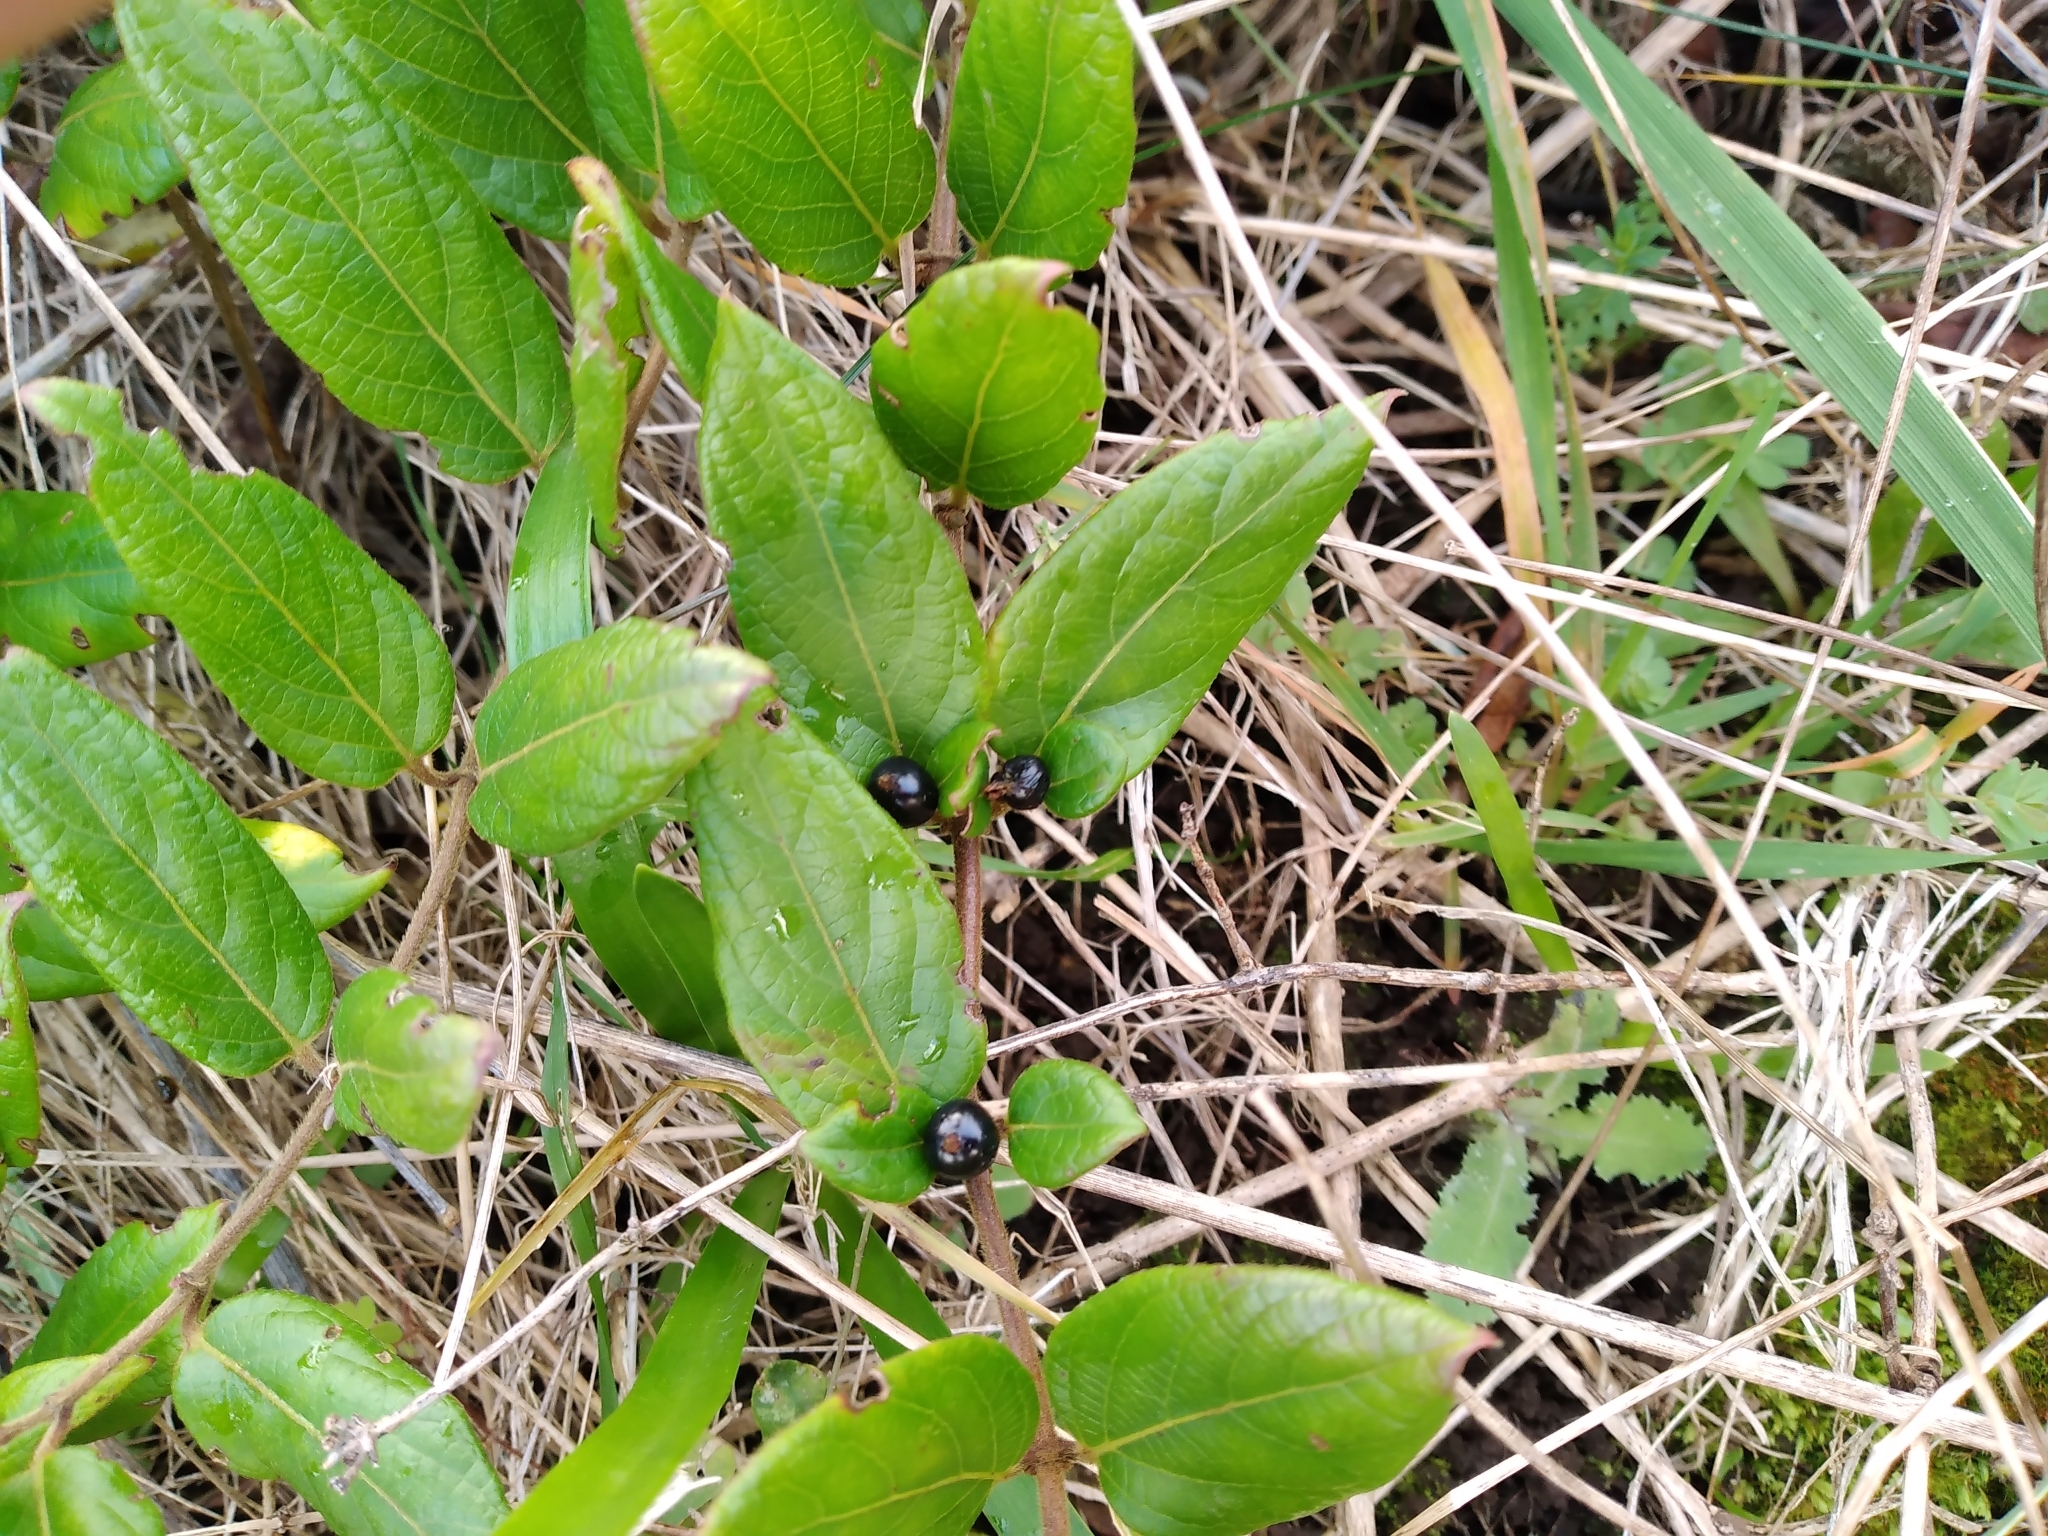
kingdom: Plantae
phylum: Tracheophyta
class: Magnoliopsida
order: Dipsacales
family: Caprifoliaceae
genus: Lonicera
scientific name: Lonicera japonica
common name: Japanese honeysuckle
